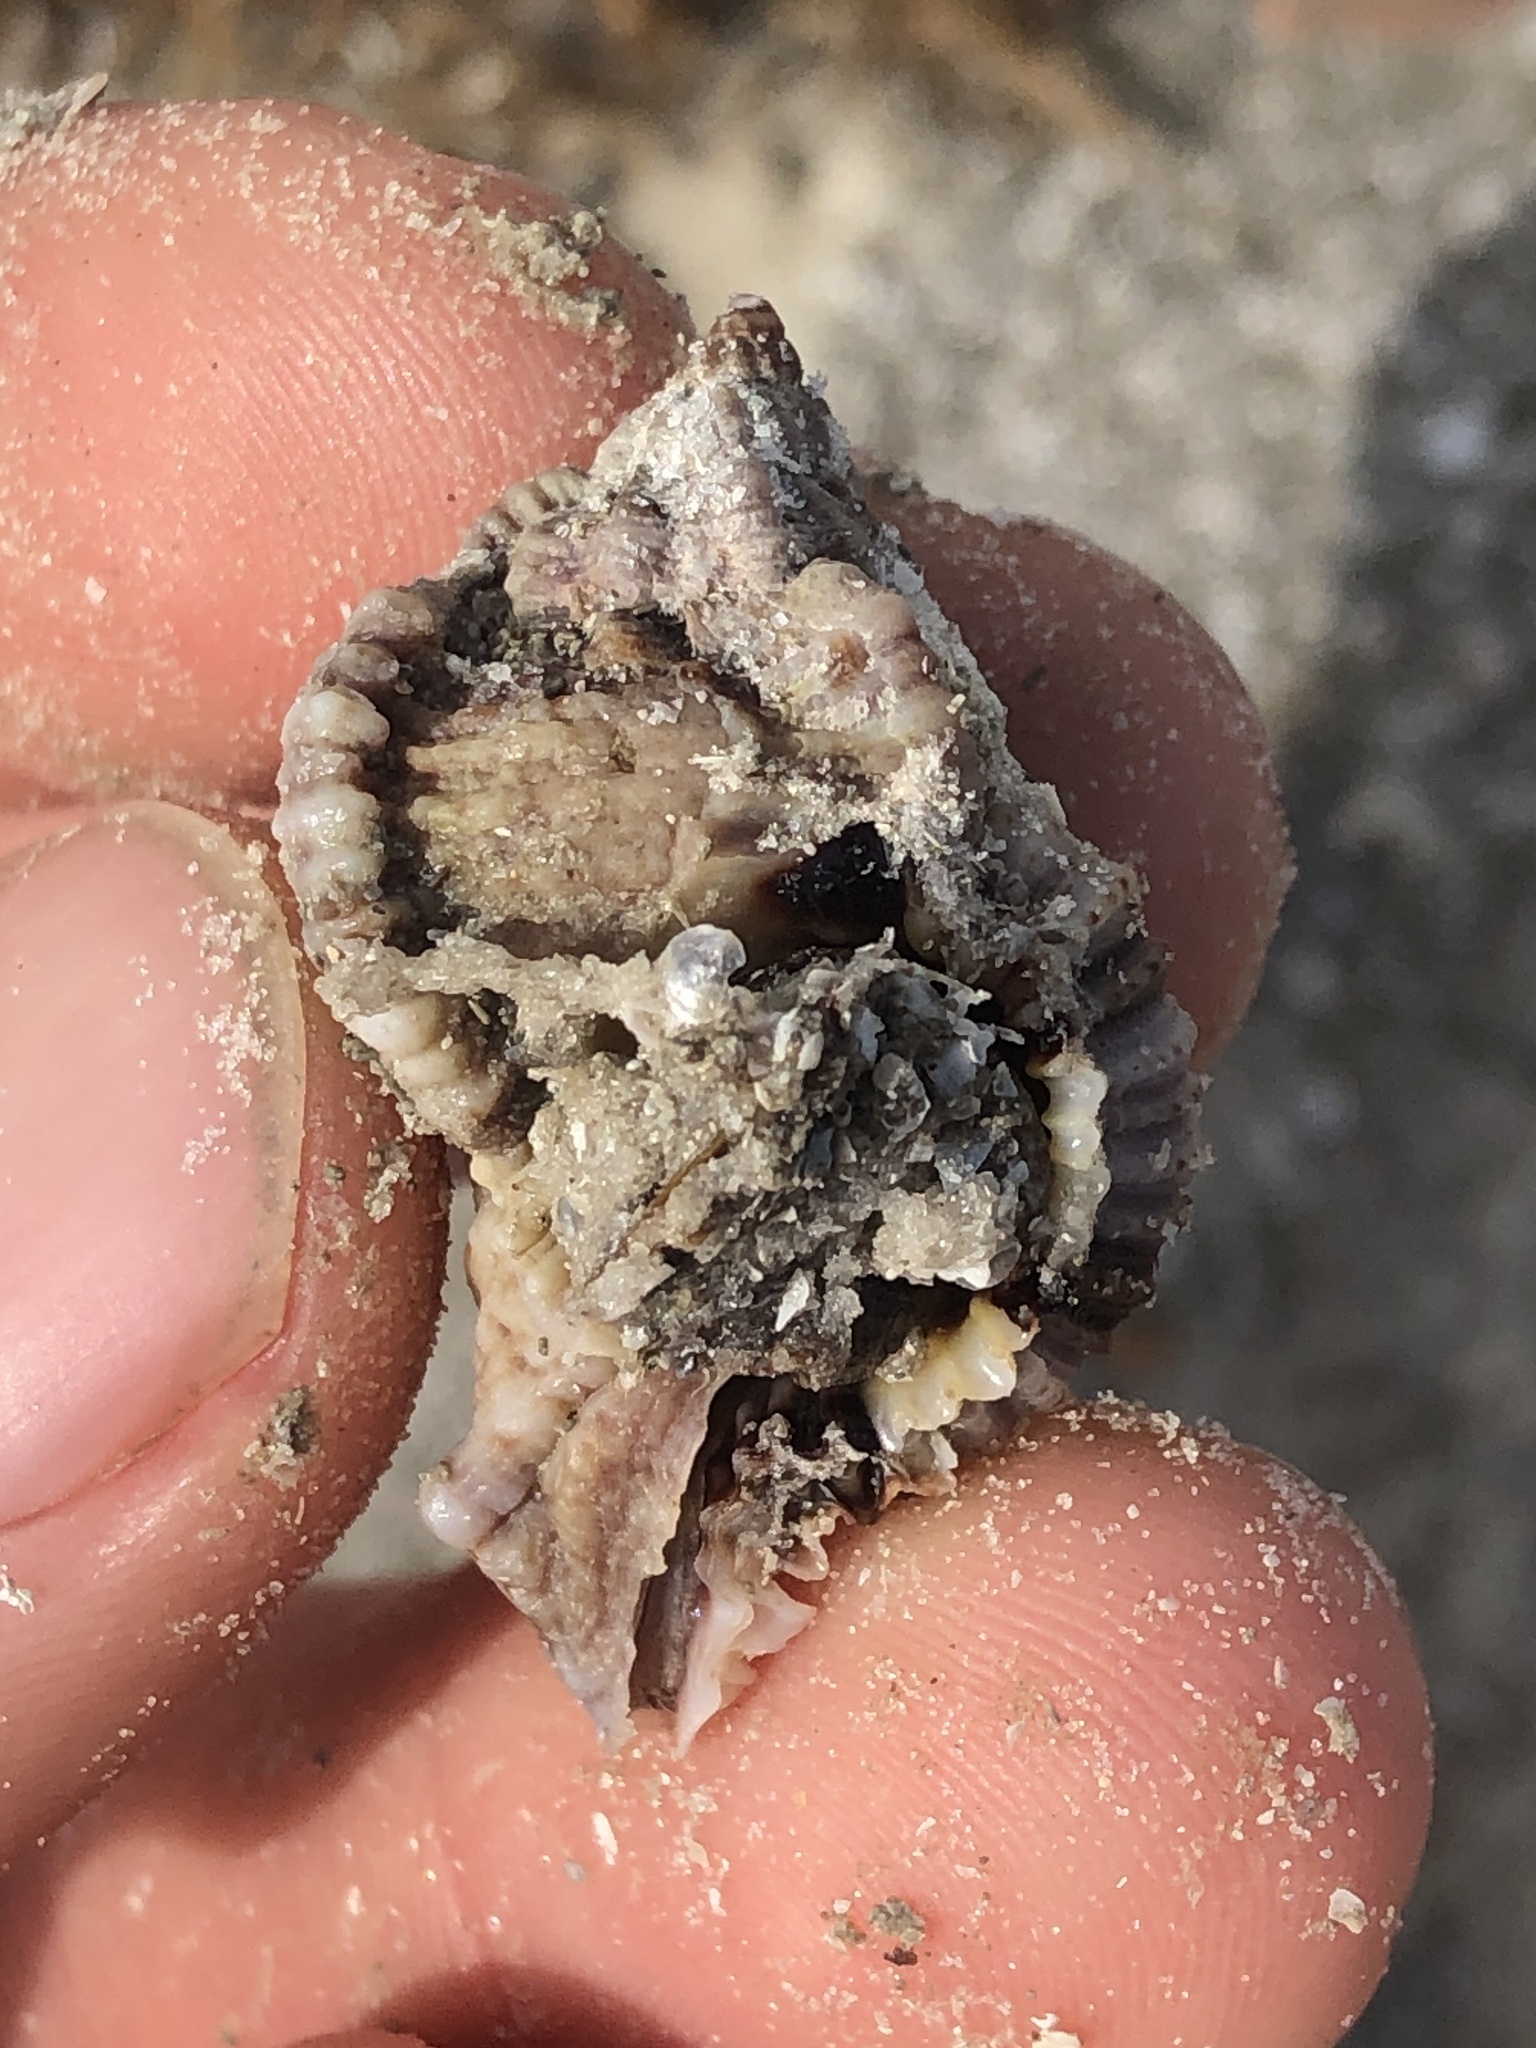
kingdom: Animalia
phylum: Mollusca
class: Gastropoda
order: Neogastropoda
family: Muricidae
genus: Phyllonotus
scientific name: Phyllonotus pomum
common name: Apple murex
